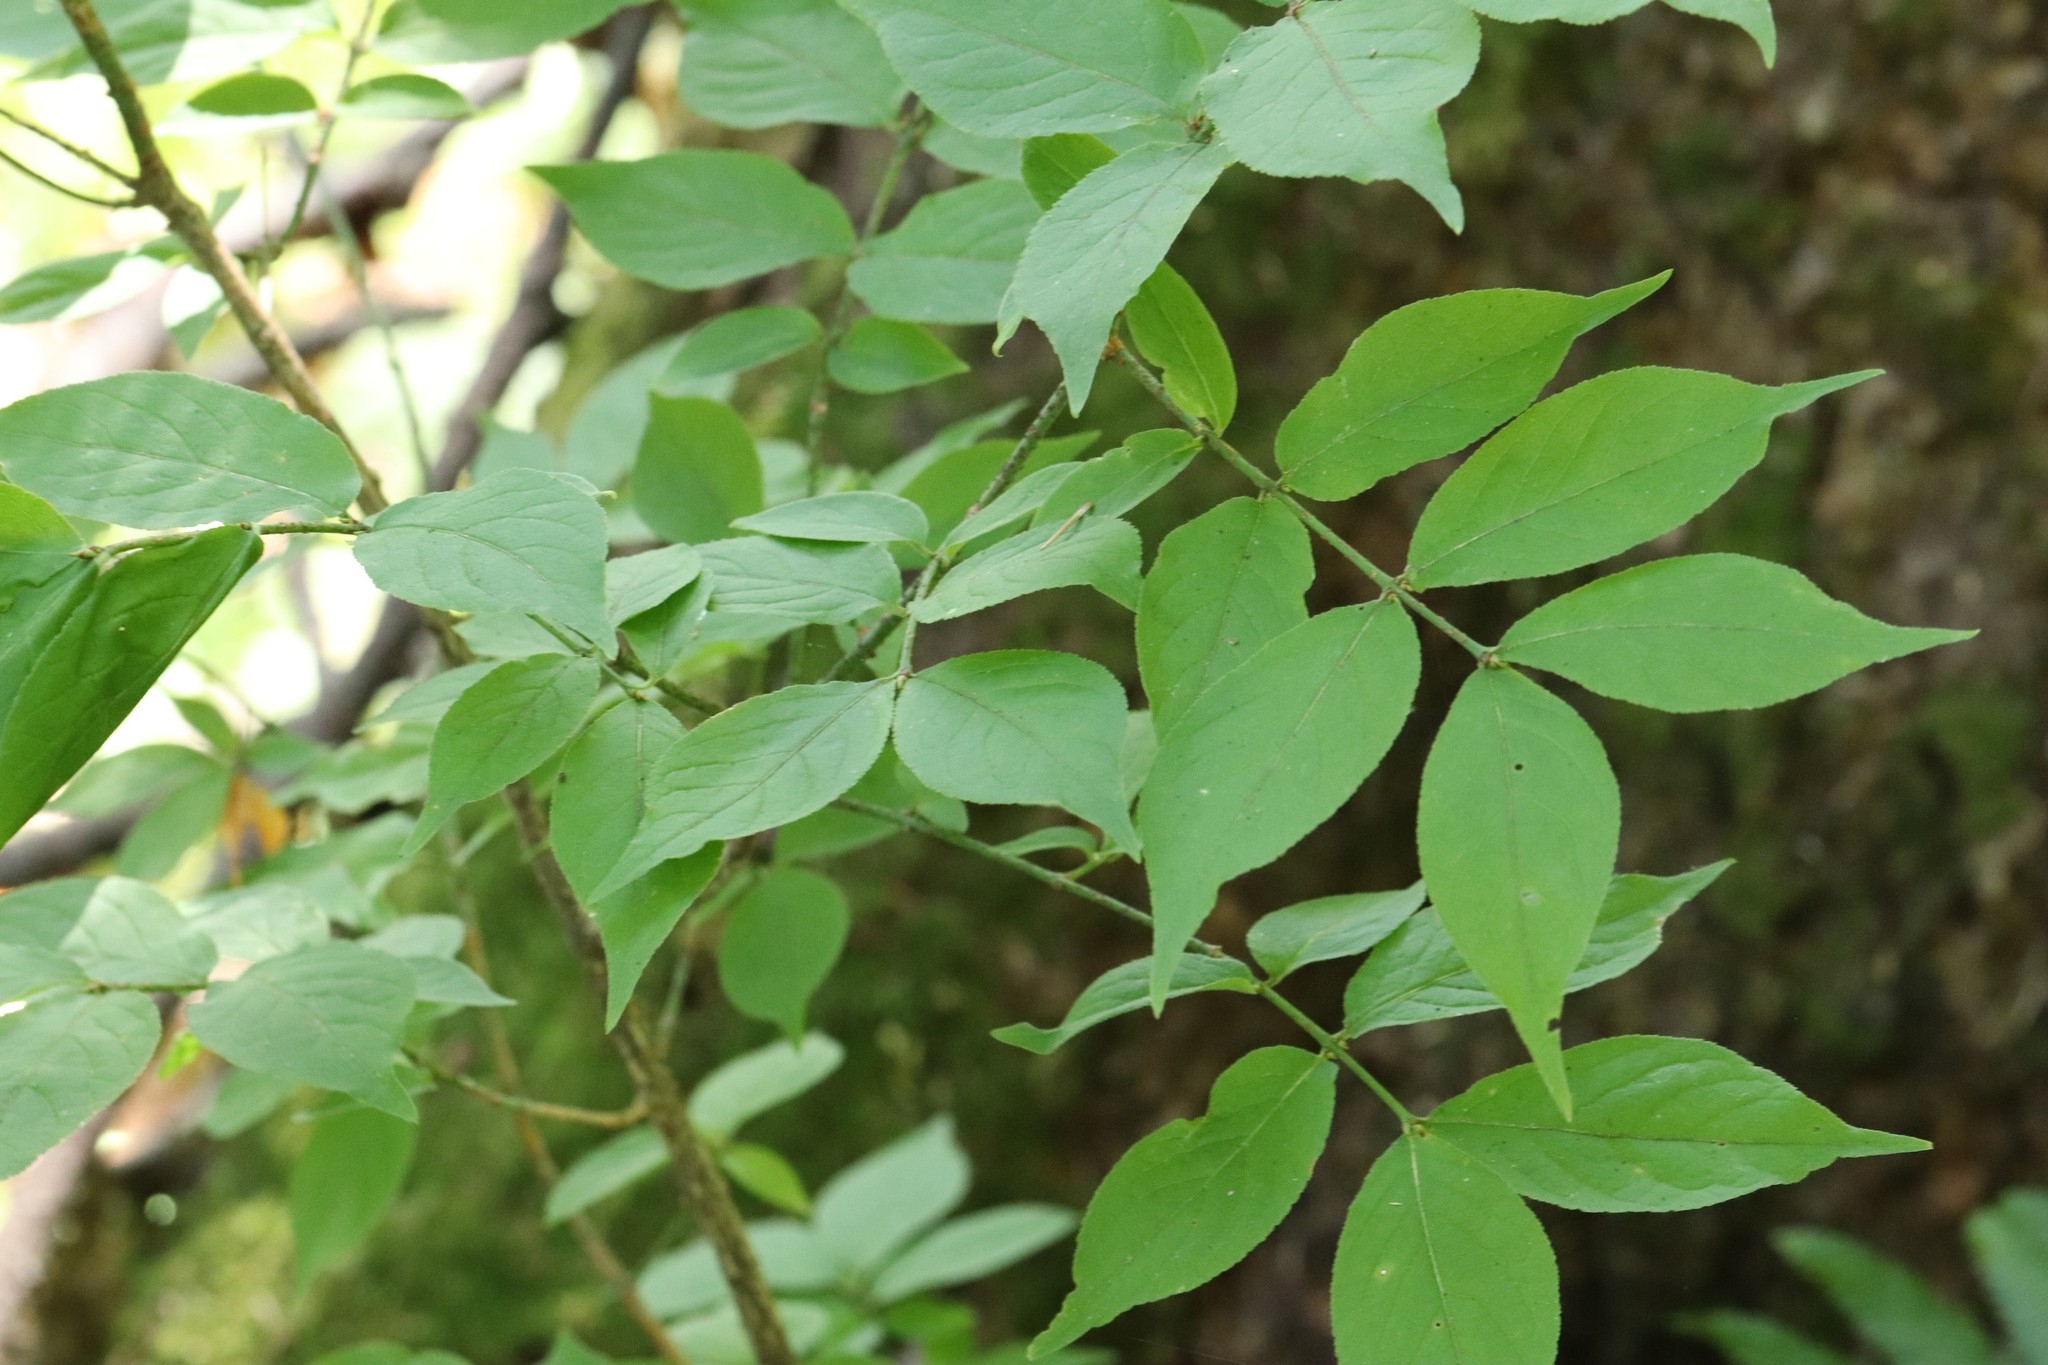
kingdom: Plantae
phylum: Tracheophyta
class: Magnoliopsida
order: Celastrales
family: Celastraceae
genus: Euonymus
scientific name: Euonymus verrucosus
